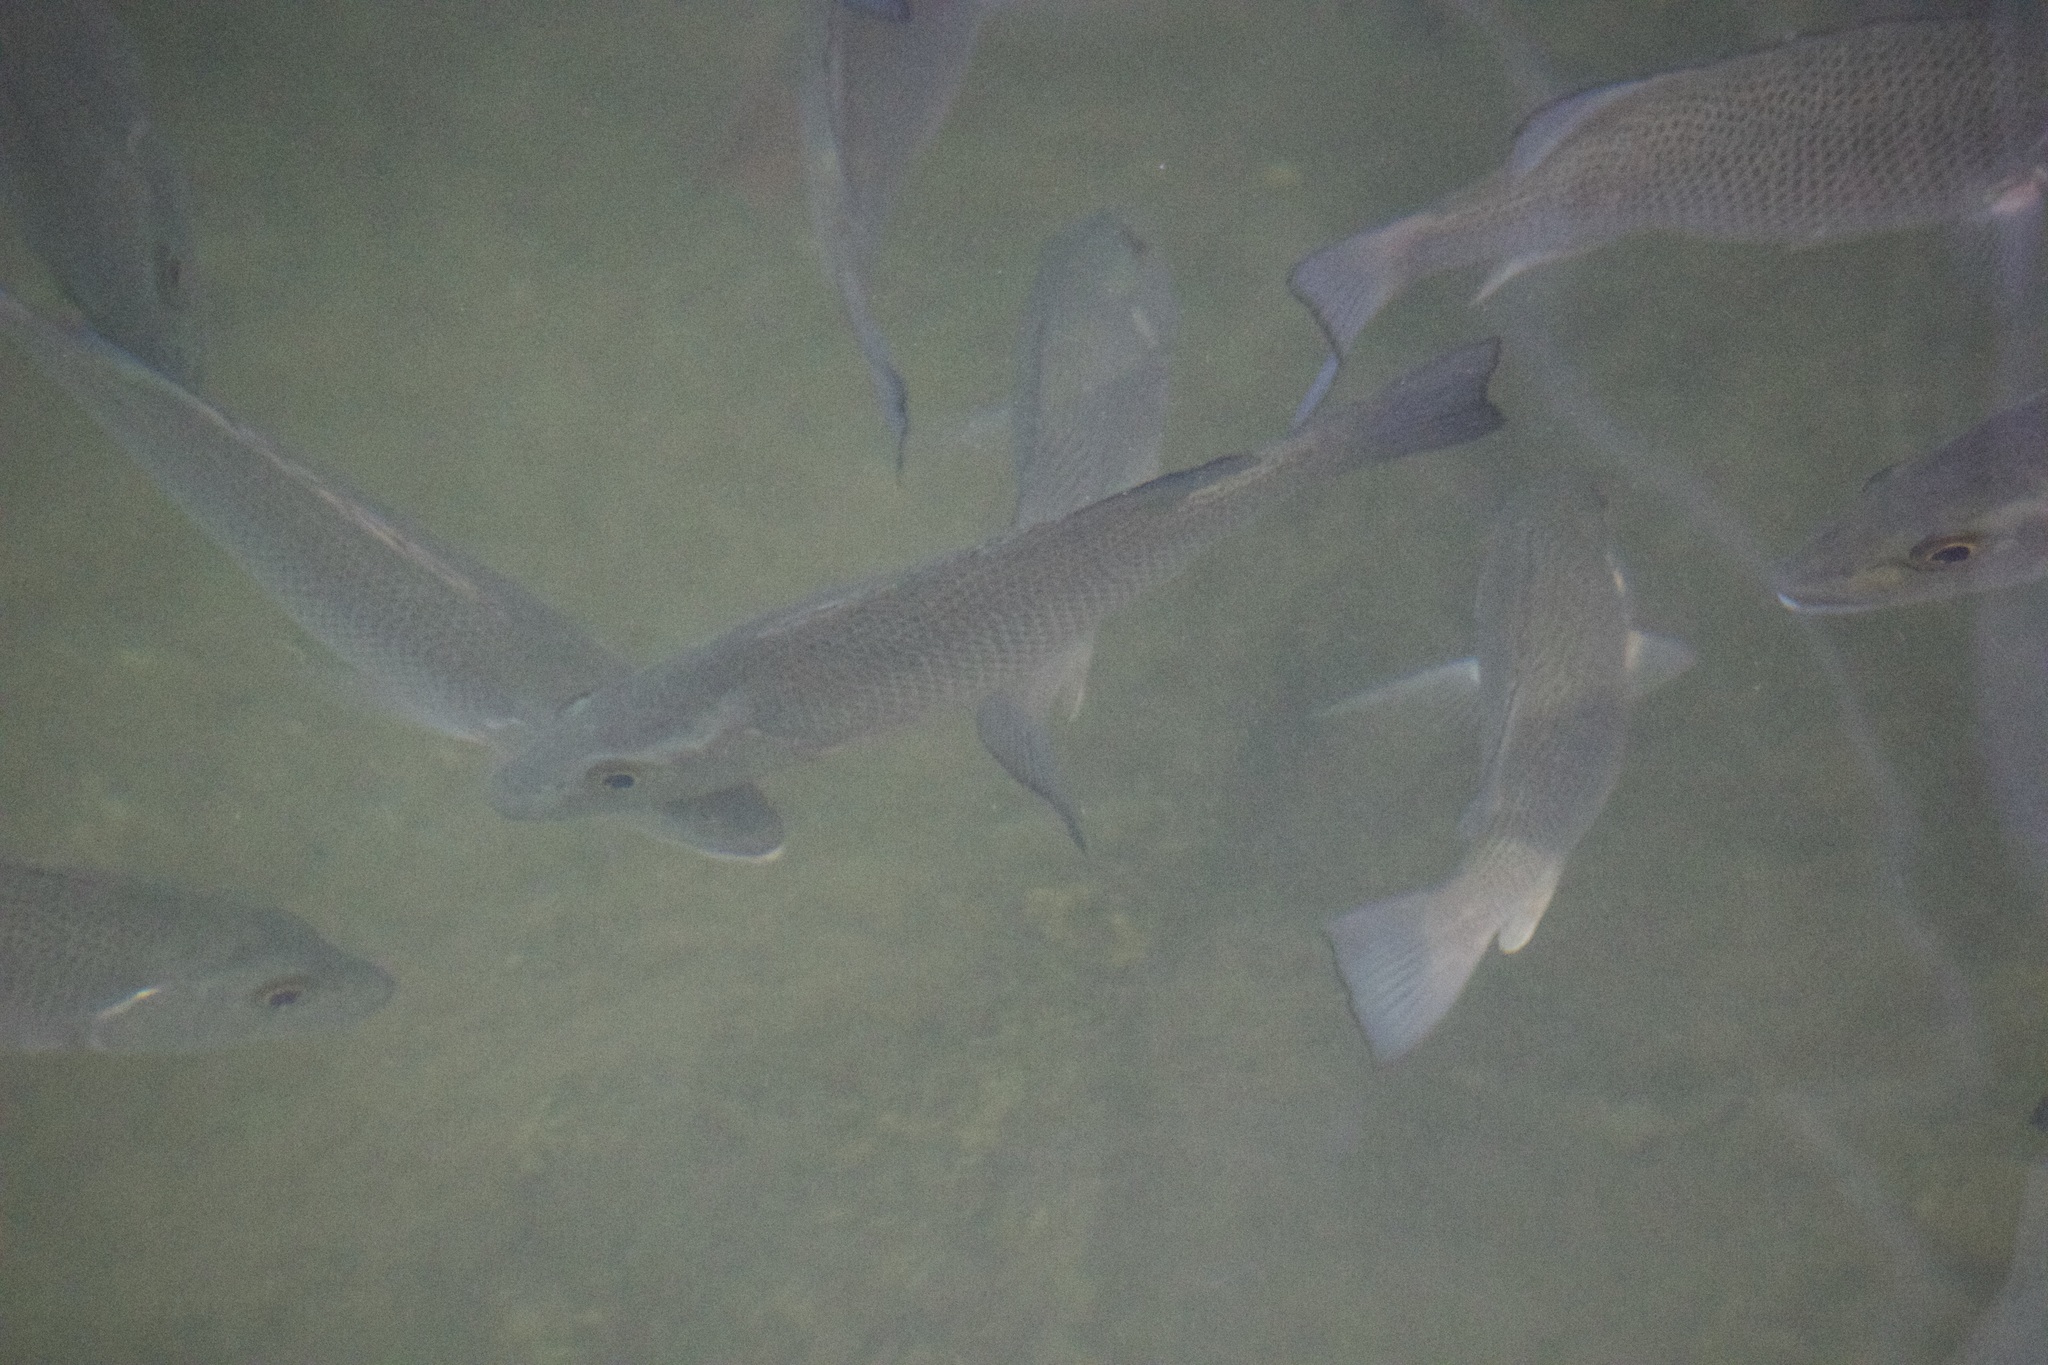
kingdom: Animalia
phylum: Chordata
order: Perciformes
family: Lutjanidae
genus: Lutjanus
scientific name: Lutjanus griseus
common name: Gray snapper
